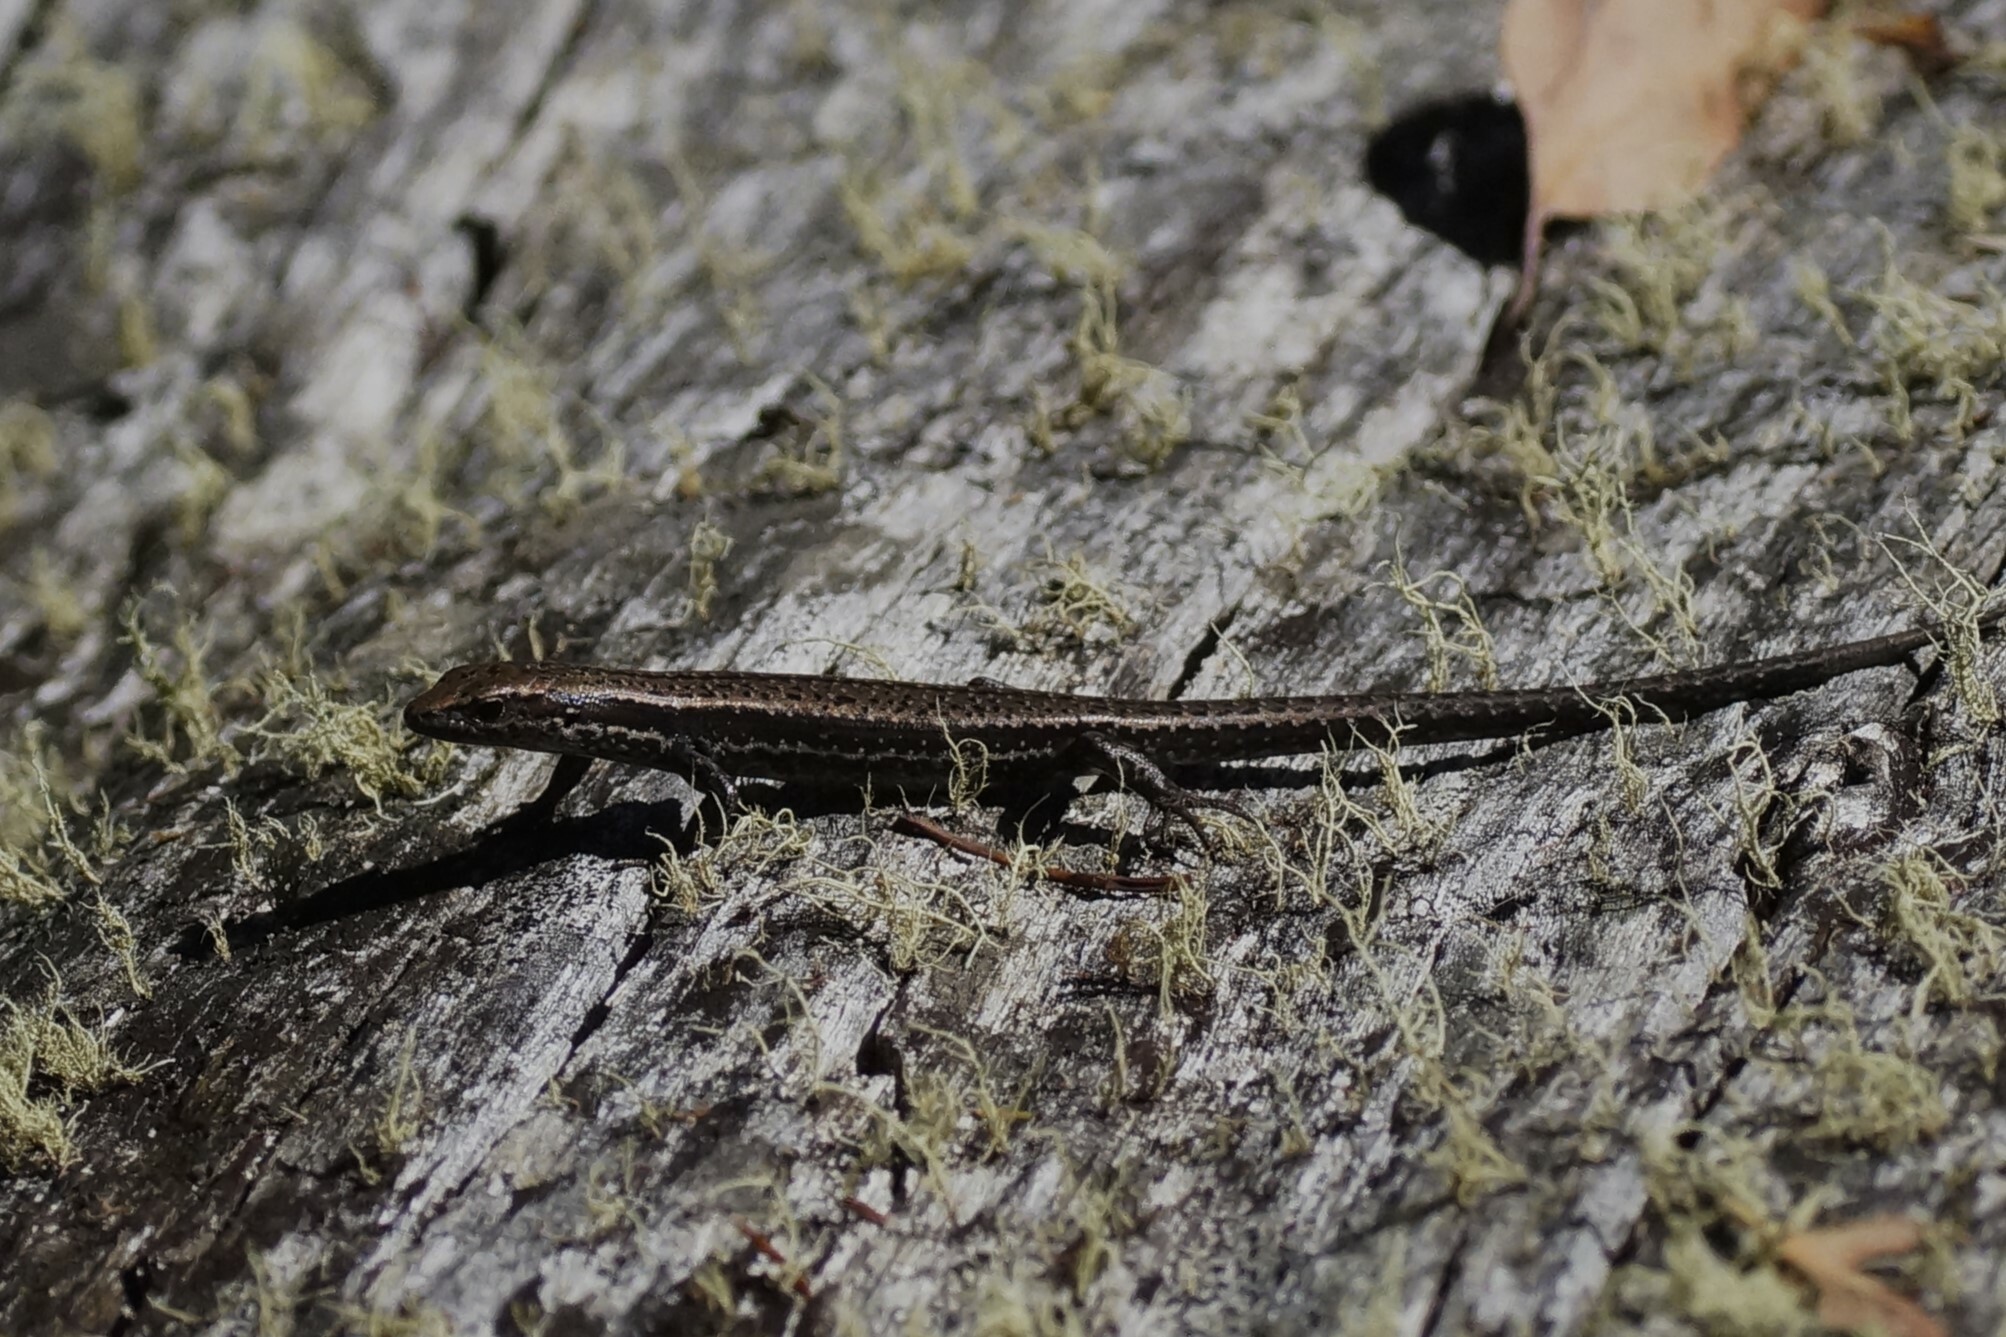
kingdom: Animalia
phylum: Chordata
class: Squamata
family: Scincidae
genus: Carinascincus
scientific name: Carinascincus pretiosus
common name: Agile cool-skink
